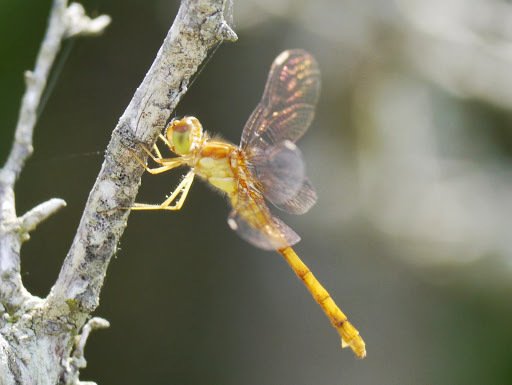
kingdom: Animalia
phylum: Arthropoda
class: Insecta
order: Odonata
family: Libellulidae
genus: Sympetrum
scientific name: Sympetrum vicinum
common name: Autumn meadowhawk
